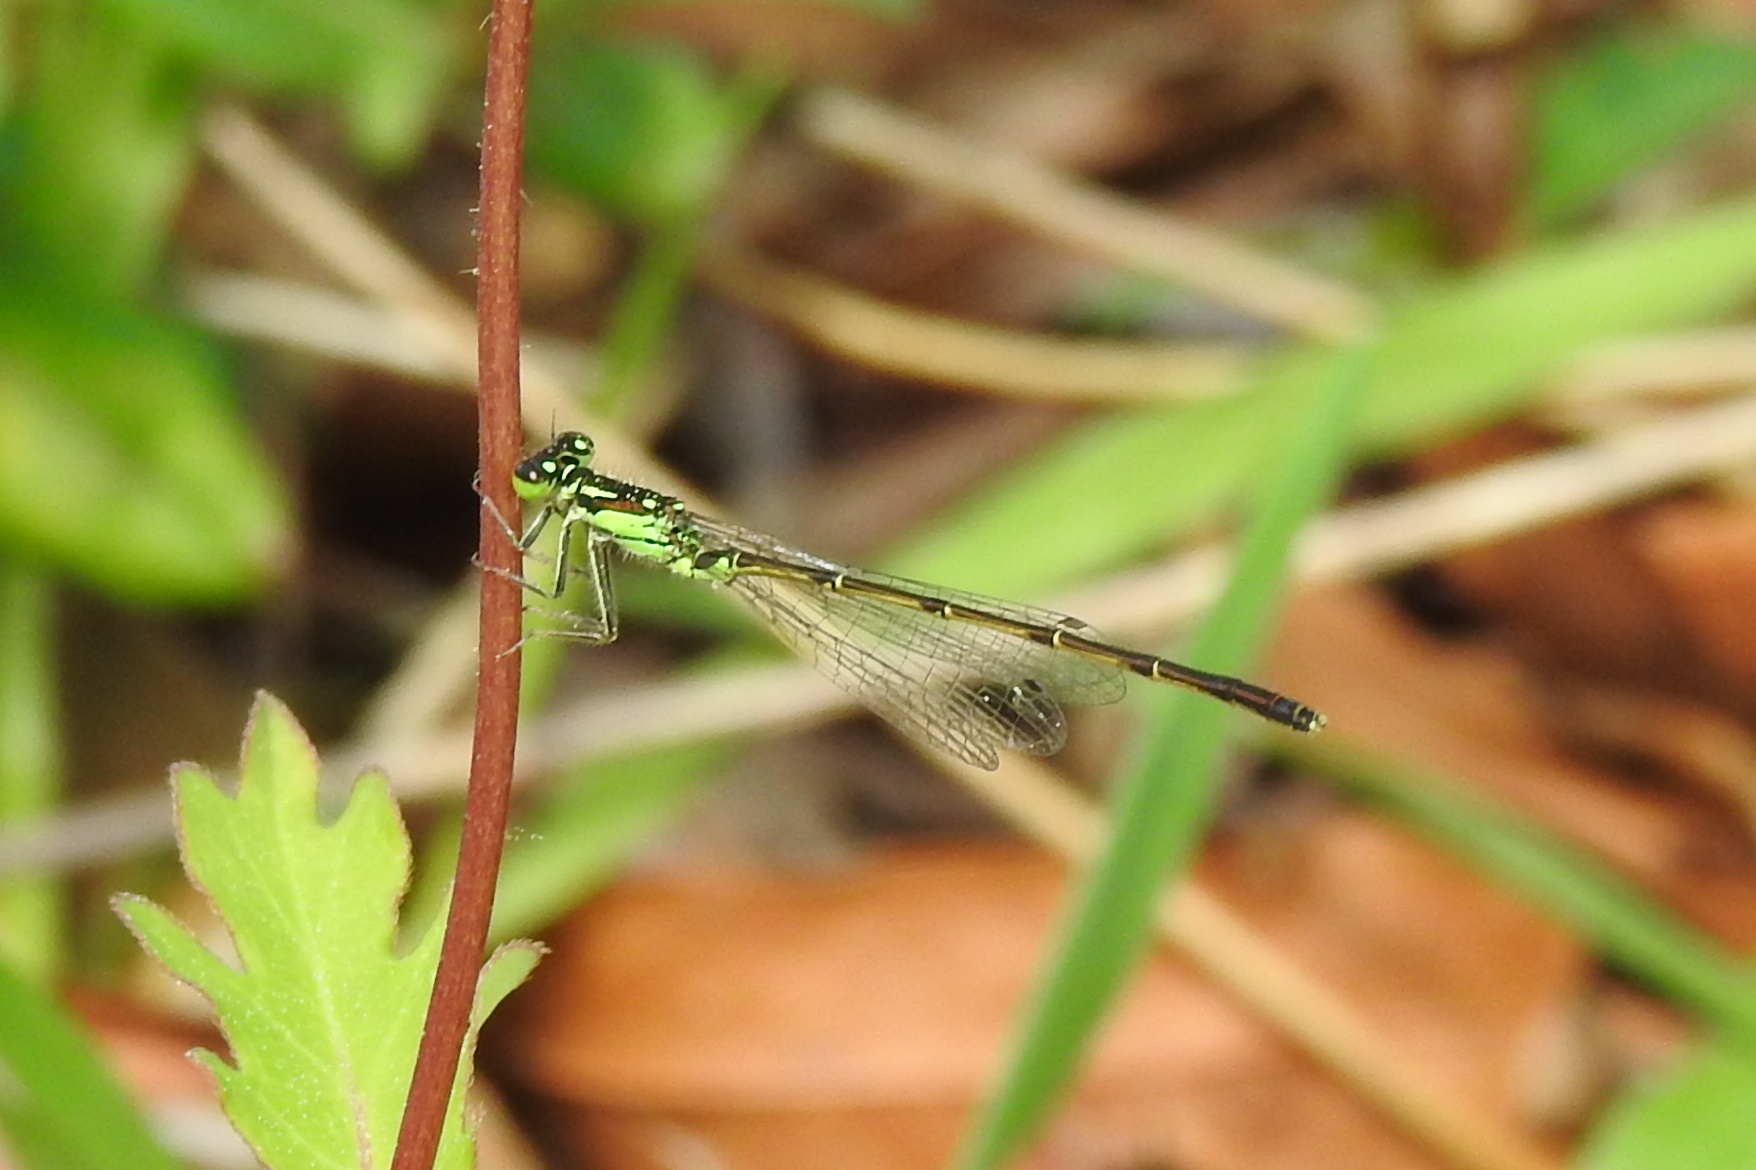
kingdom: Animalia
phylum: Arthropoda
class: Insecta
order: Odonata
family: Coenagrionidae
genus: Ischnura
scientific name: Ischnura posita
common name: Fragile forktail
